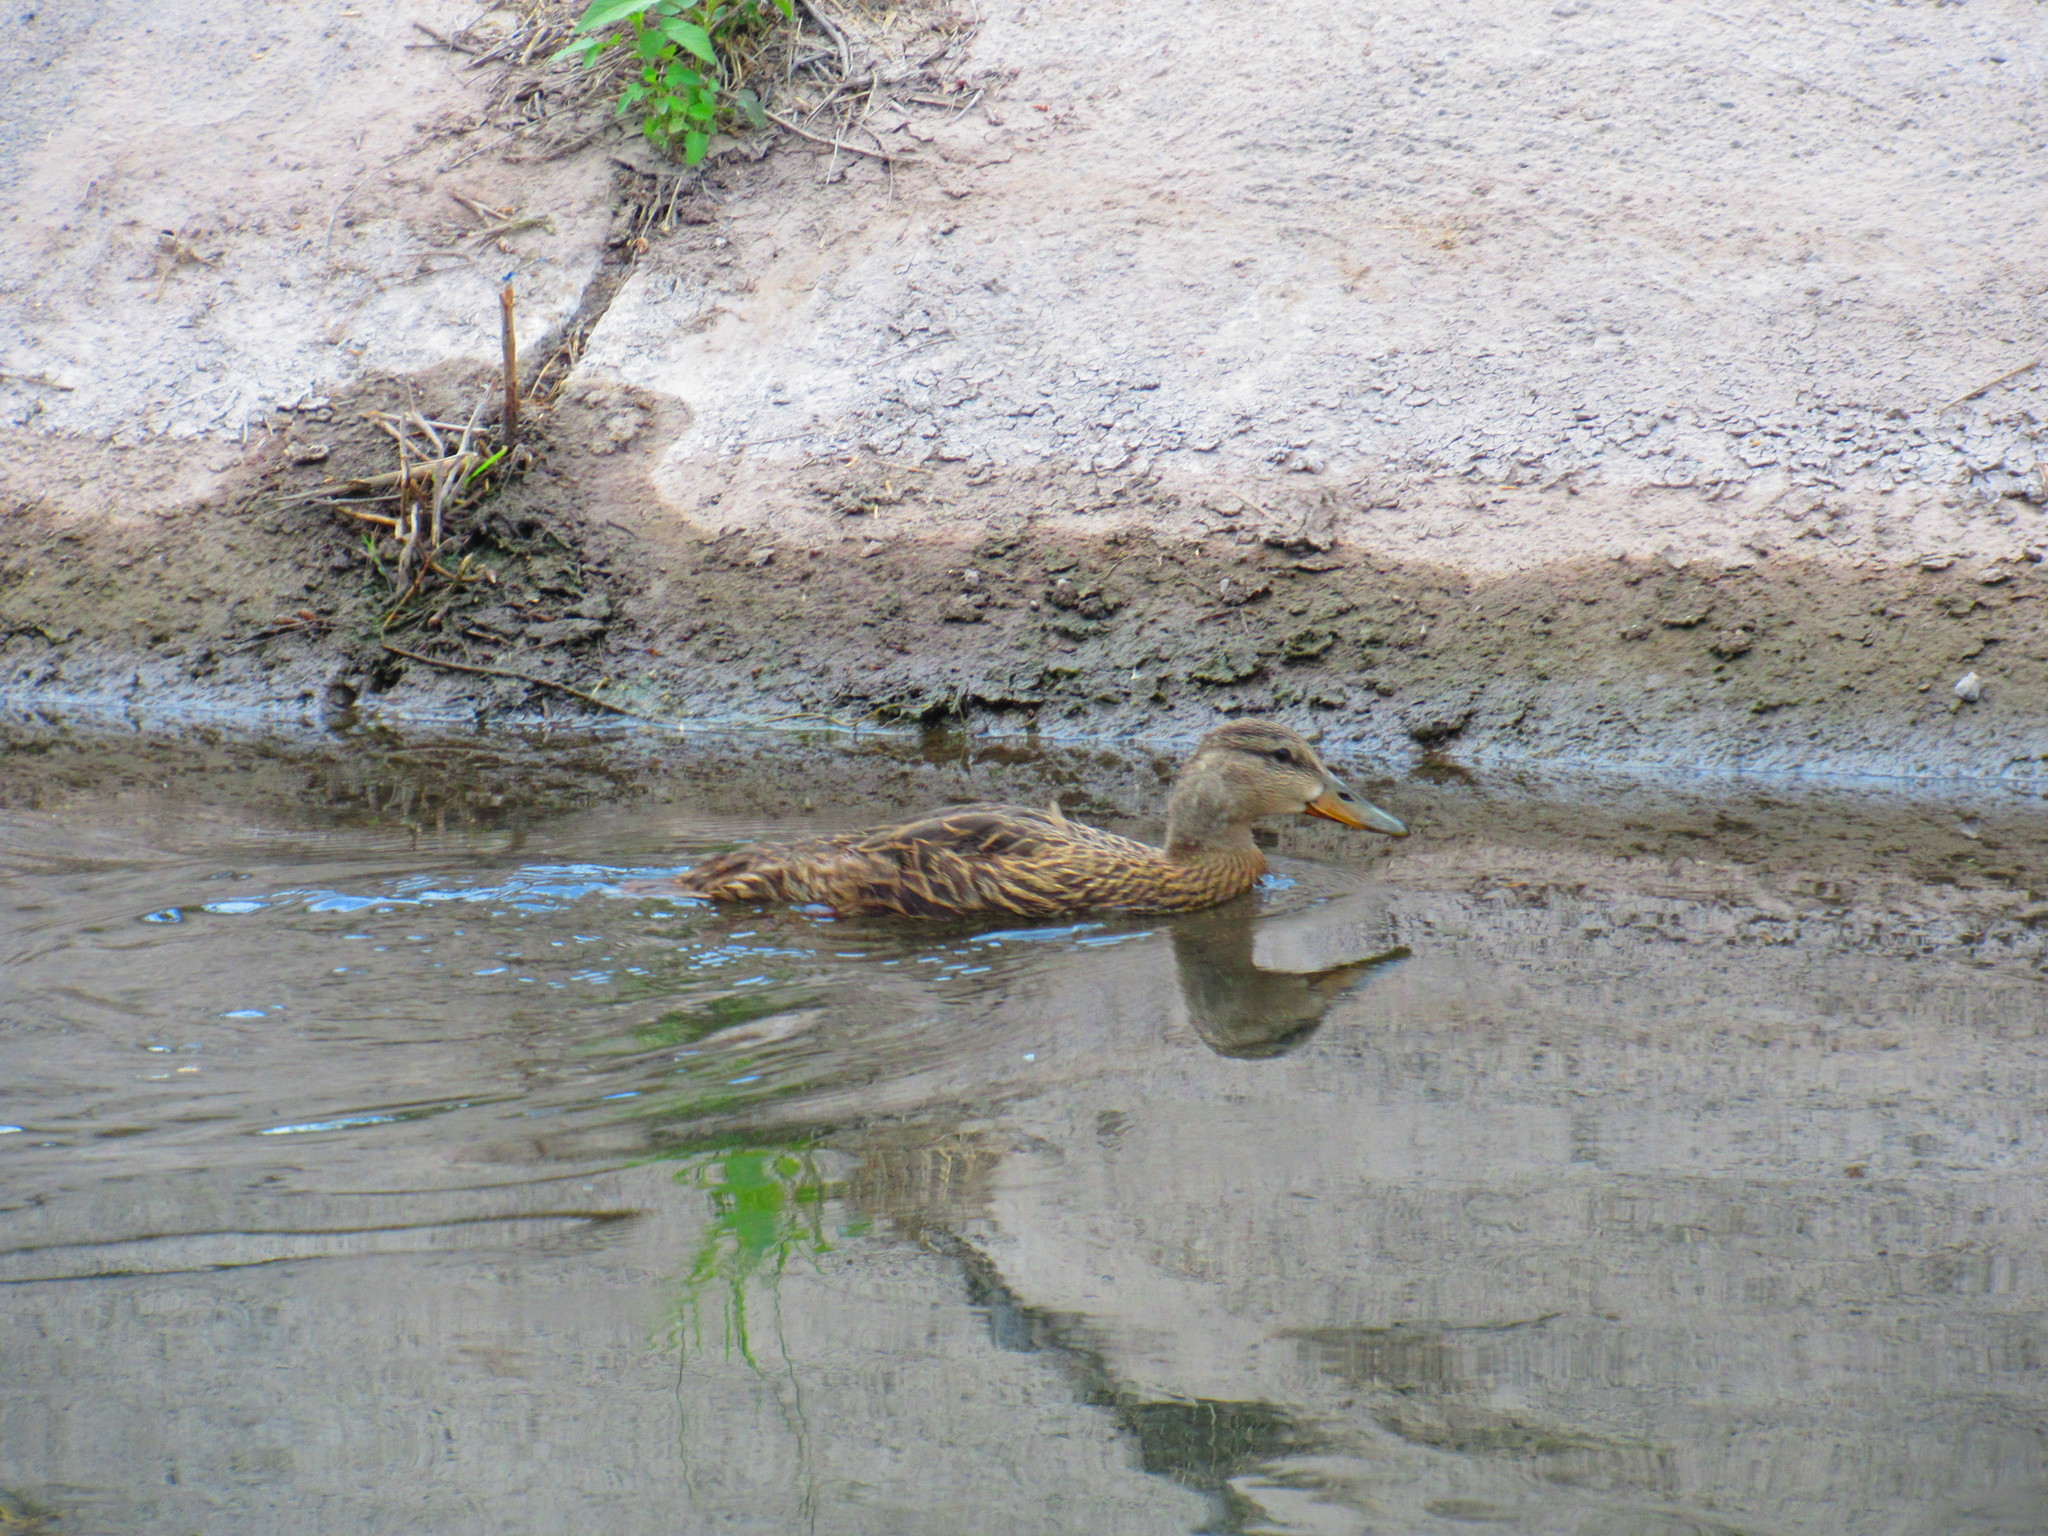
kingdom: Animalia
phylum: Chordata
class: Aves
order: Anseriformes
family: Anatidae
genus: Anas
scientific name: Anas diazi
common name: Mexican duck
